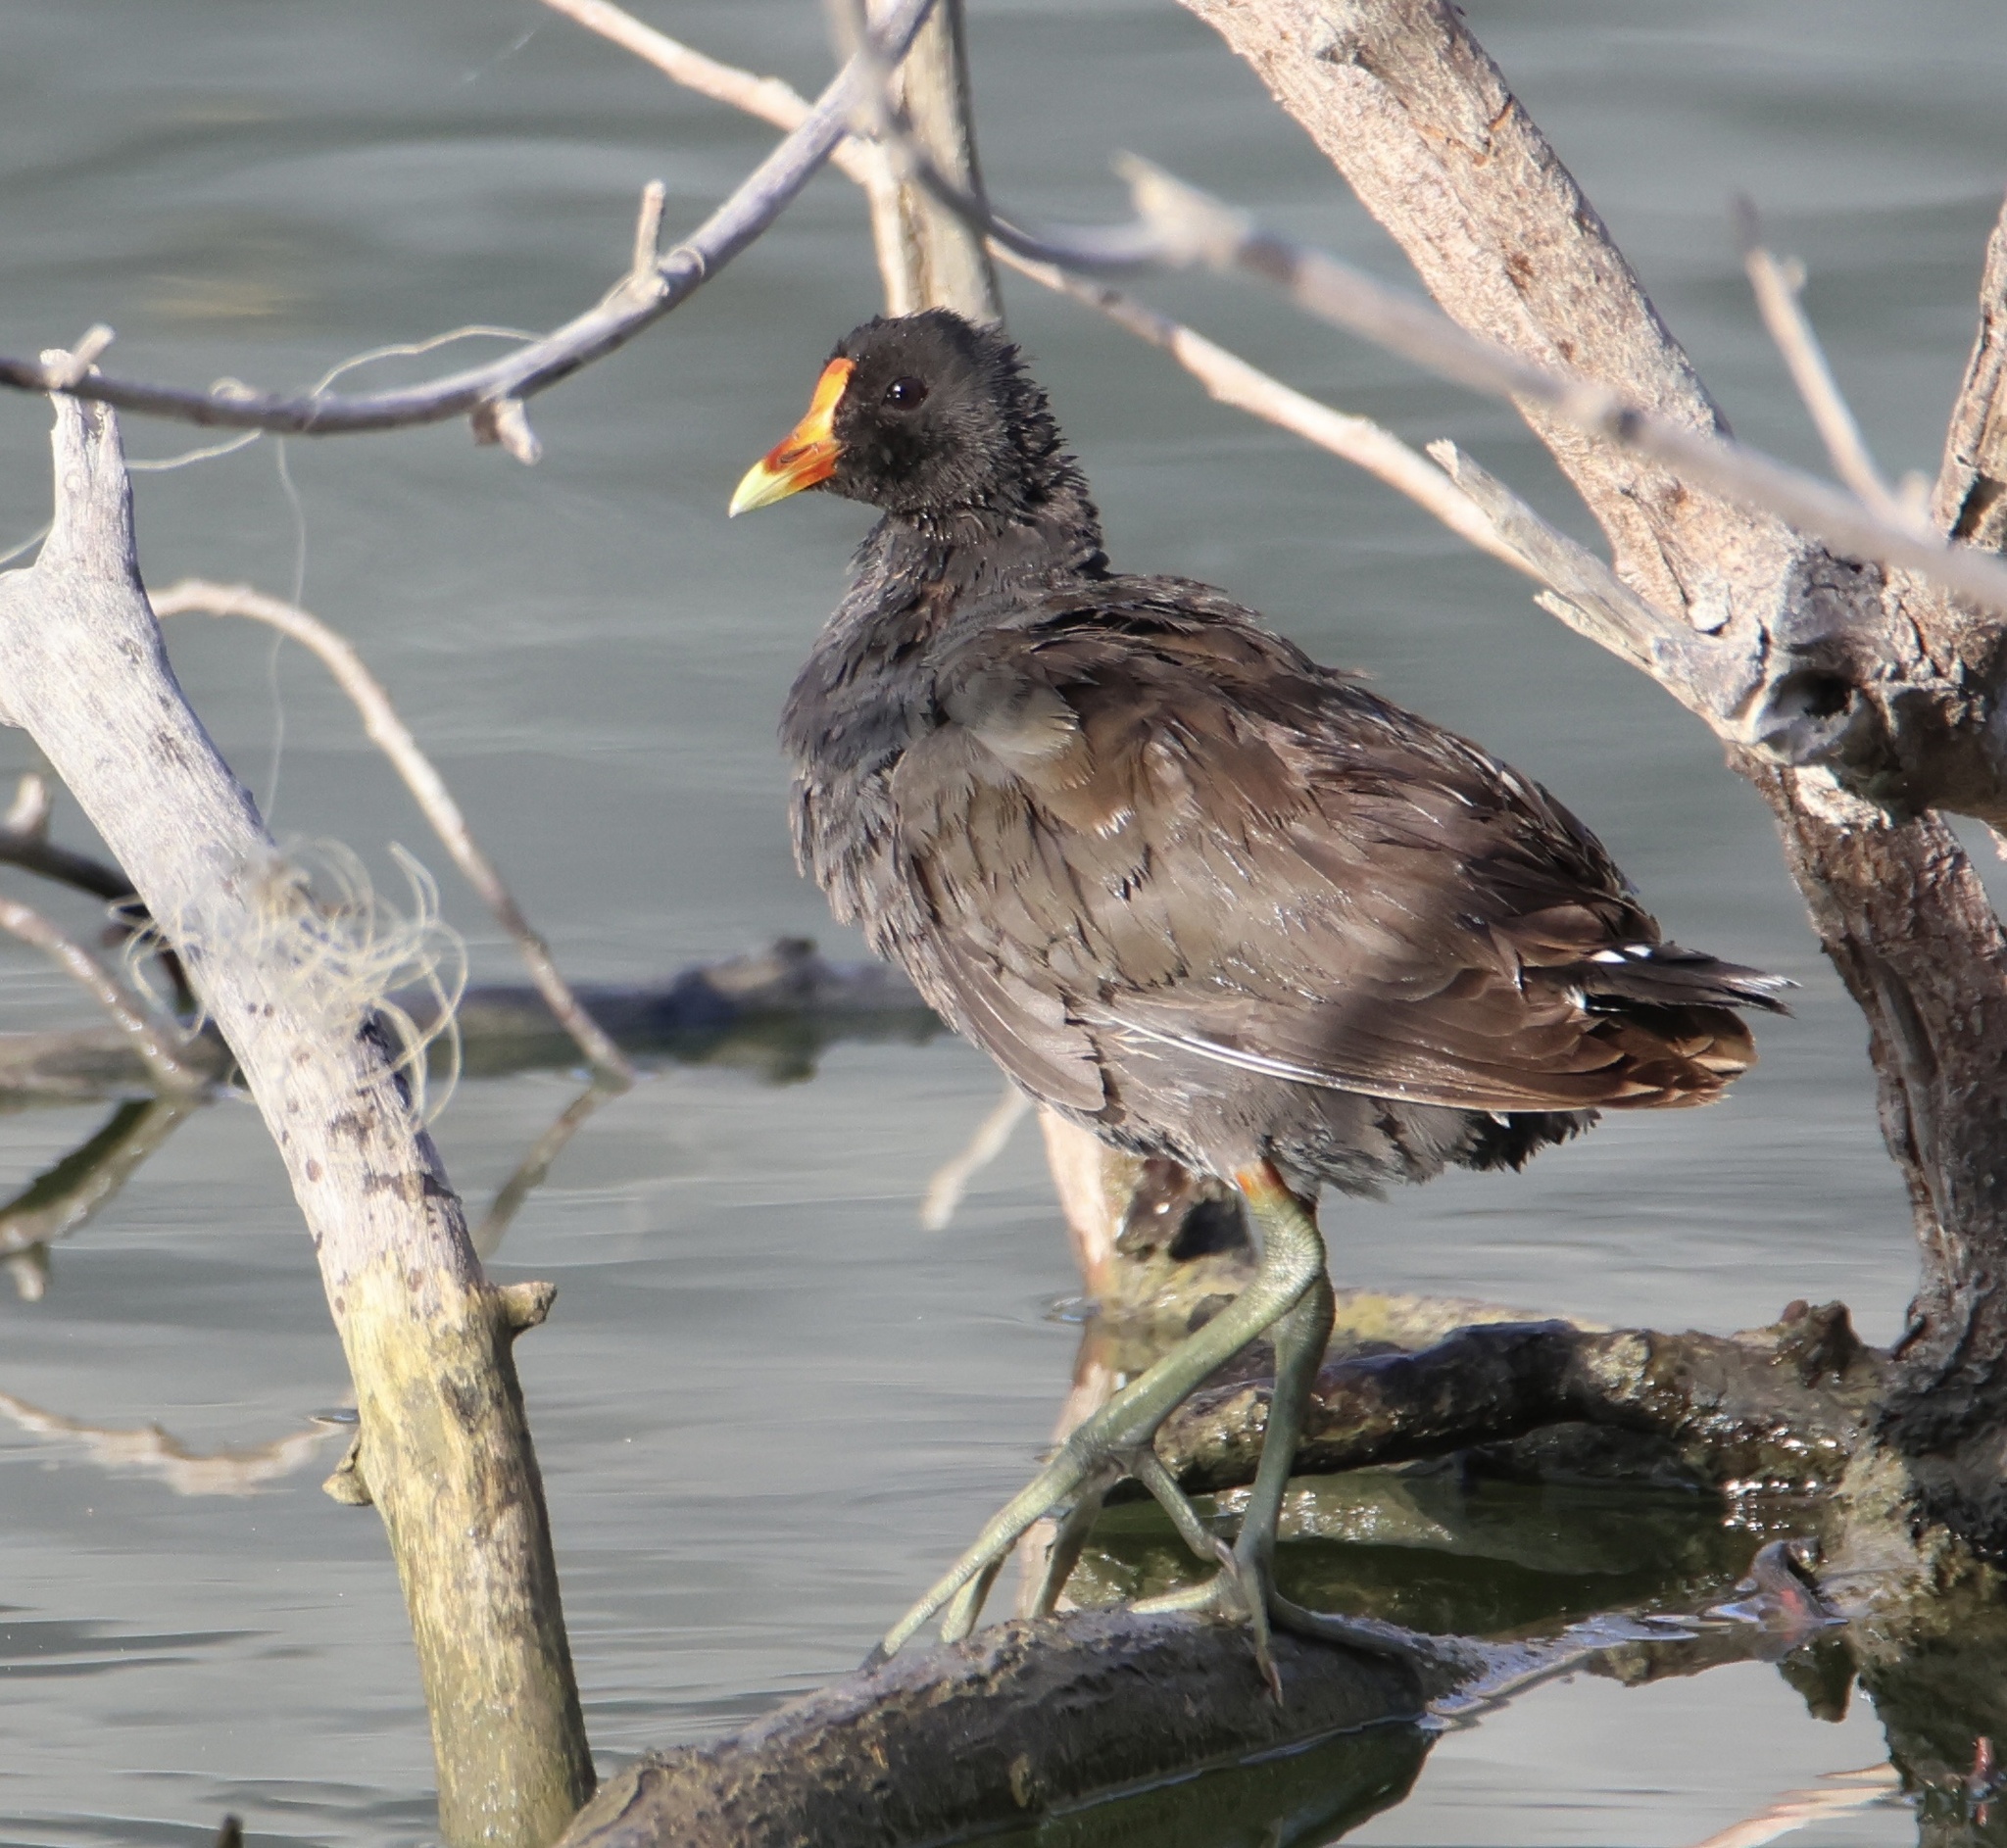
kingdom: Animalia
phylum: Chordata
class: Aves
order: Gruiformes
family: Rallidae
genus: Gallinula
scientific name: Gallinula chloropus
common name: Common moorhen
